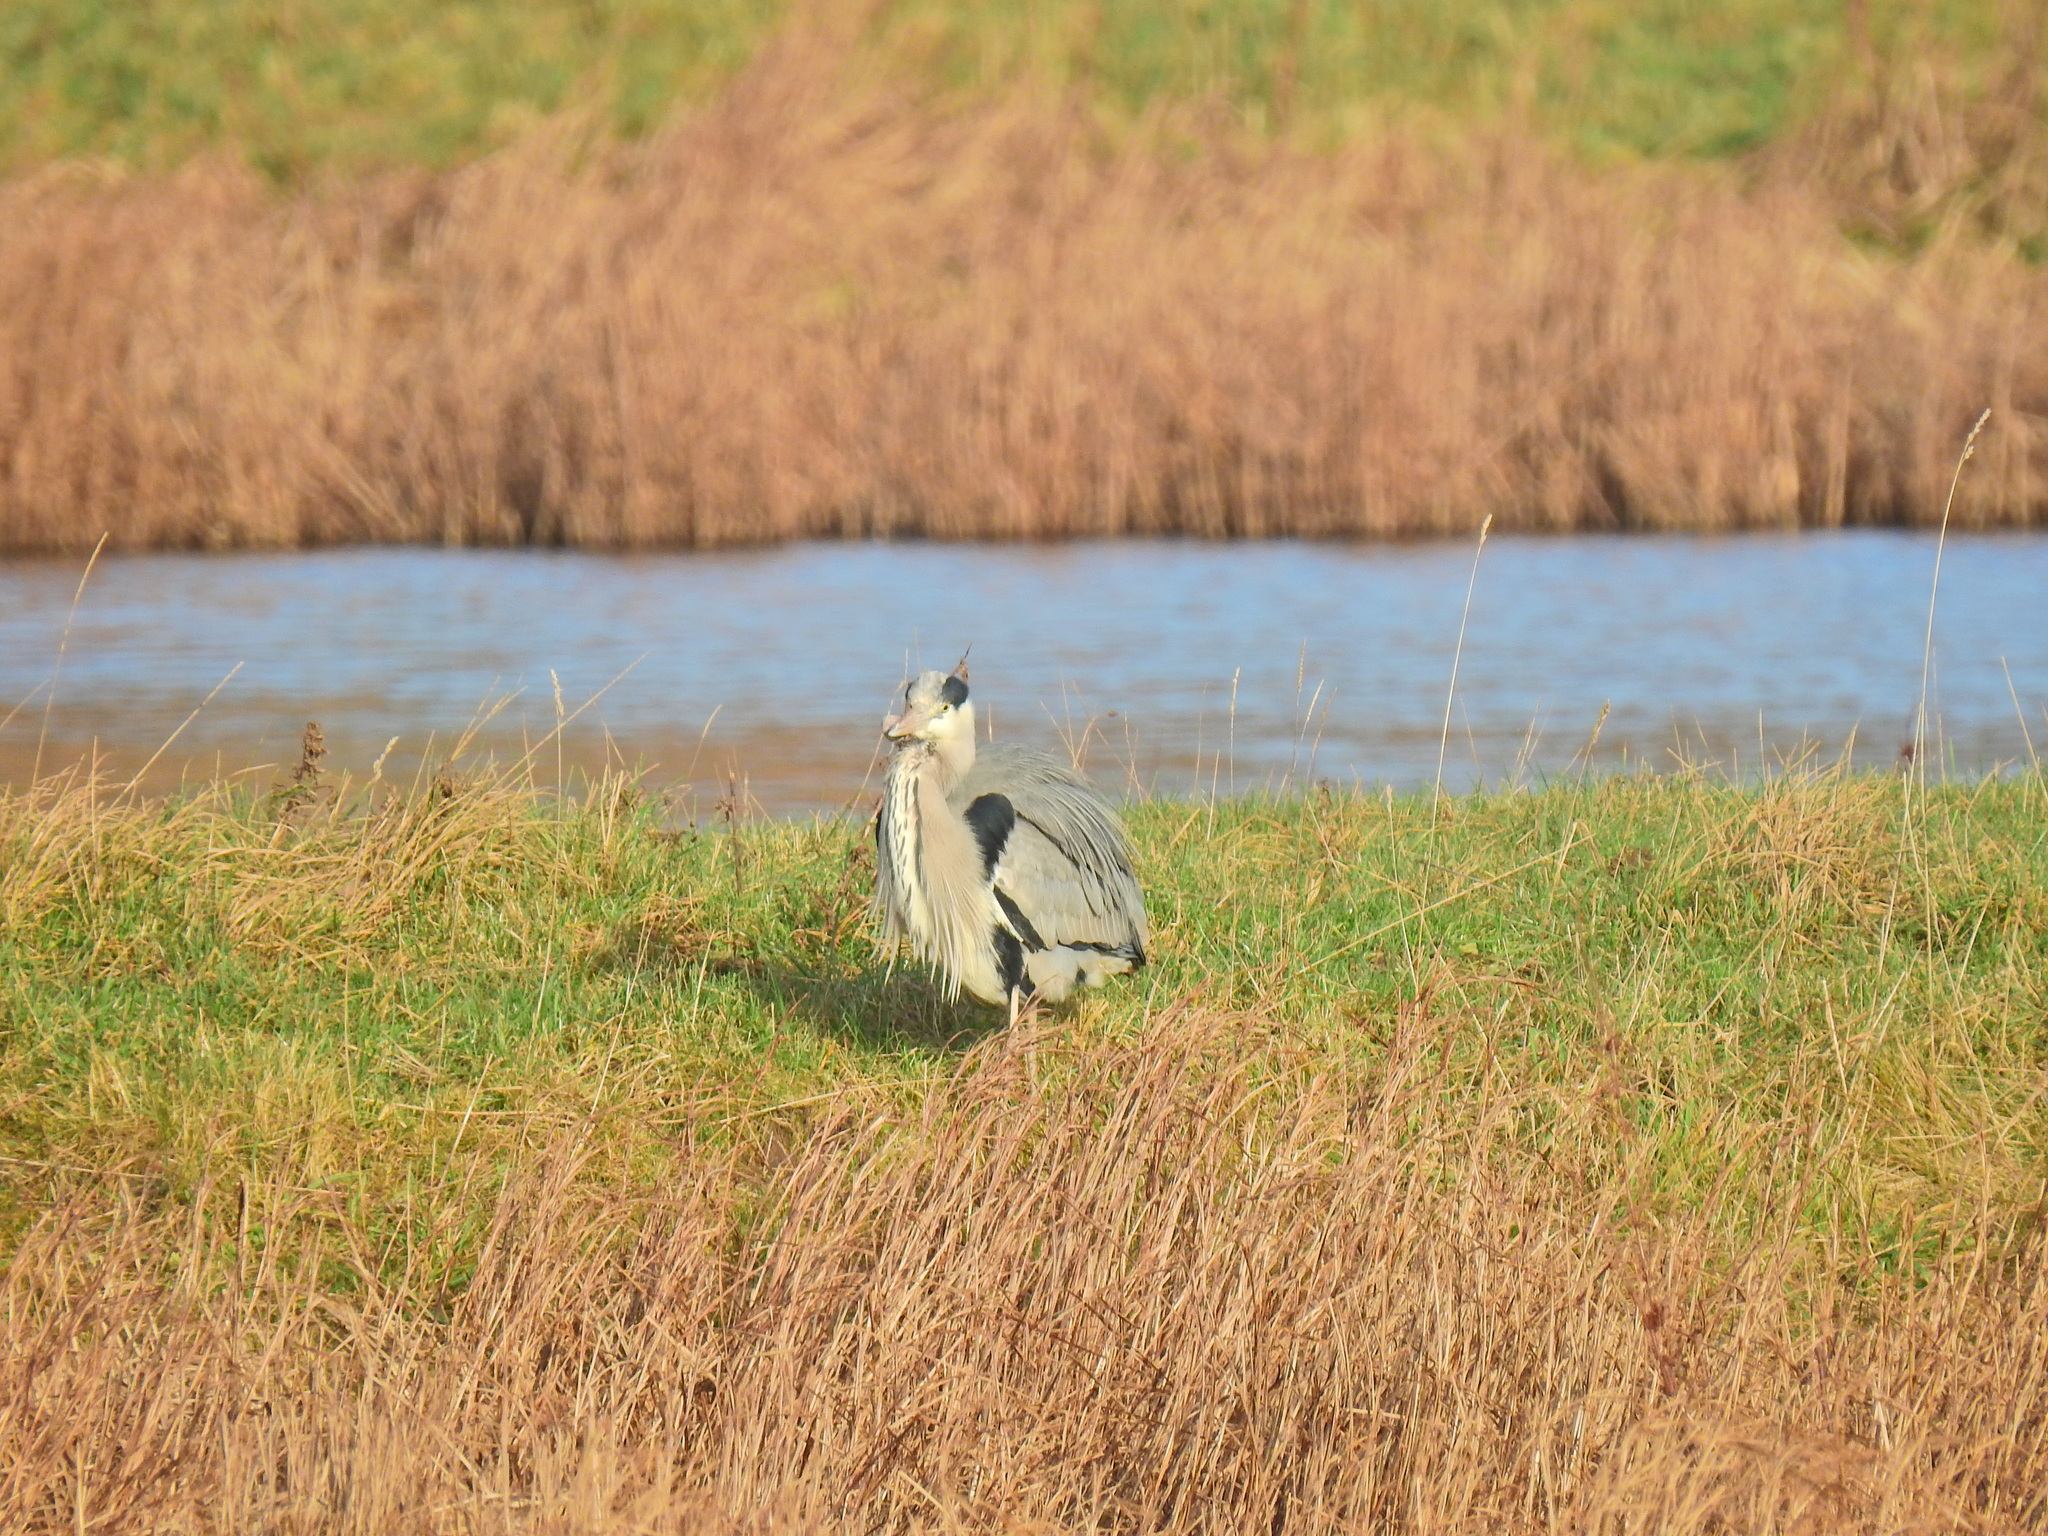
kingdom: Animalia
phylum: Chordata
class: Aves
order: Pelecaniformes
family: Ardeidae
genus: Ardea
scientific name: Ardea cinerea
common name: Grey heron
